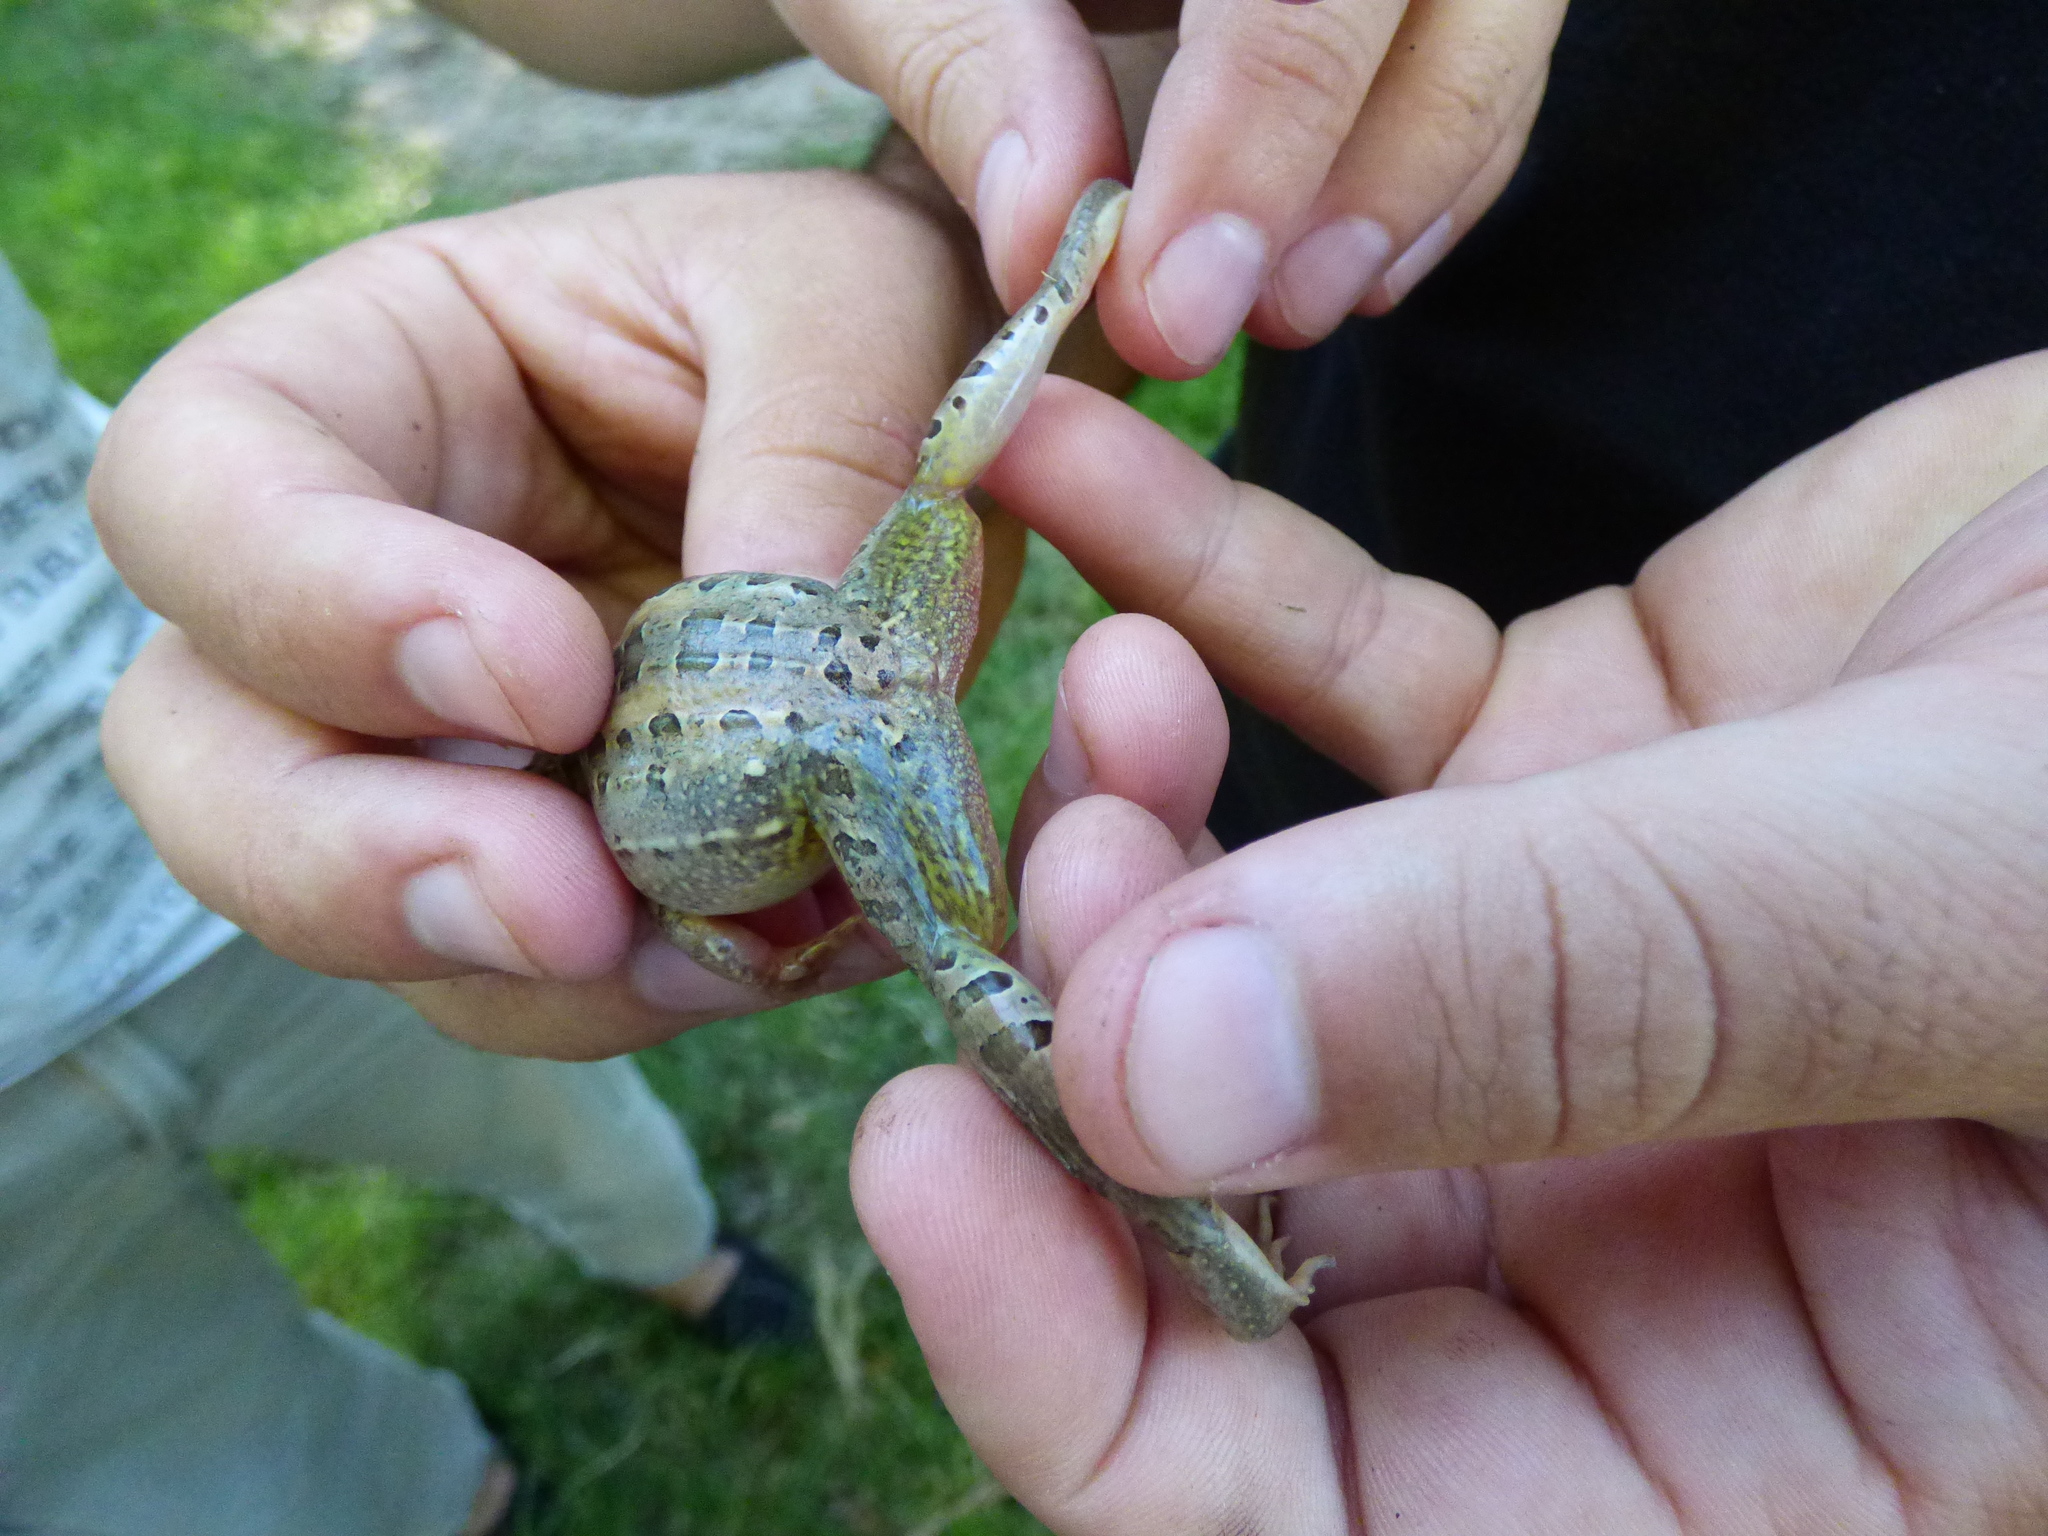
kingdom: Animalia
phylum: Chordata
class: Amphibia
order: Anura
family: Leptodactylidae
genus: Leptodactylus
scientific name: Leptodactylus macrosternum
